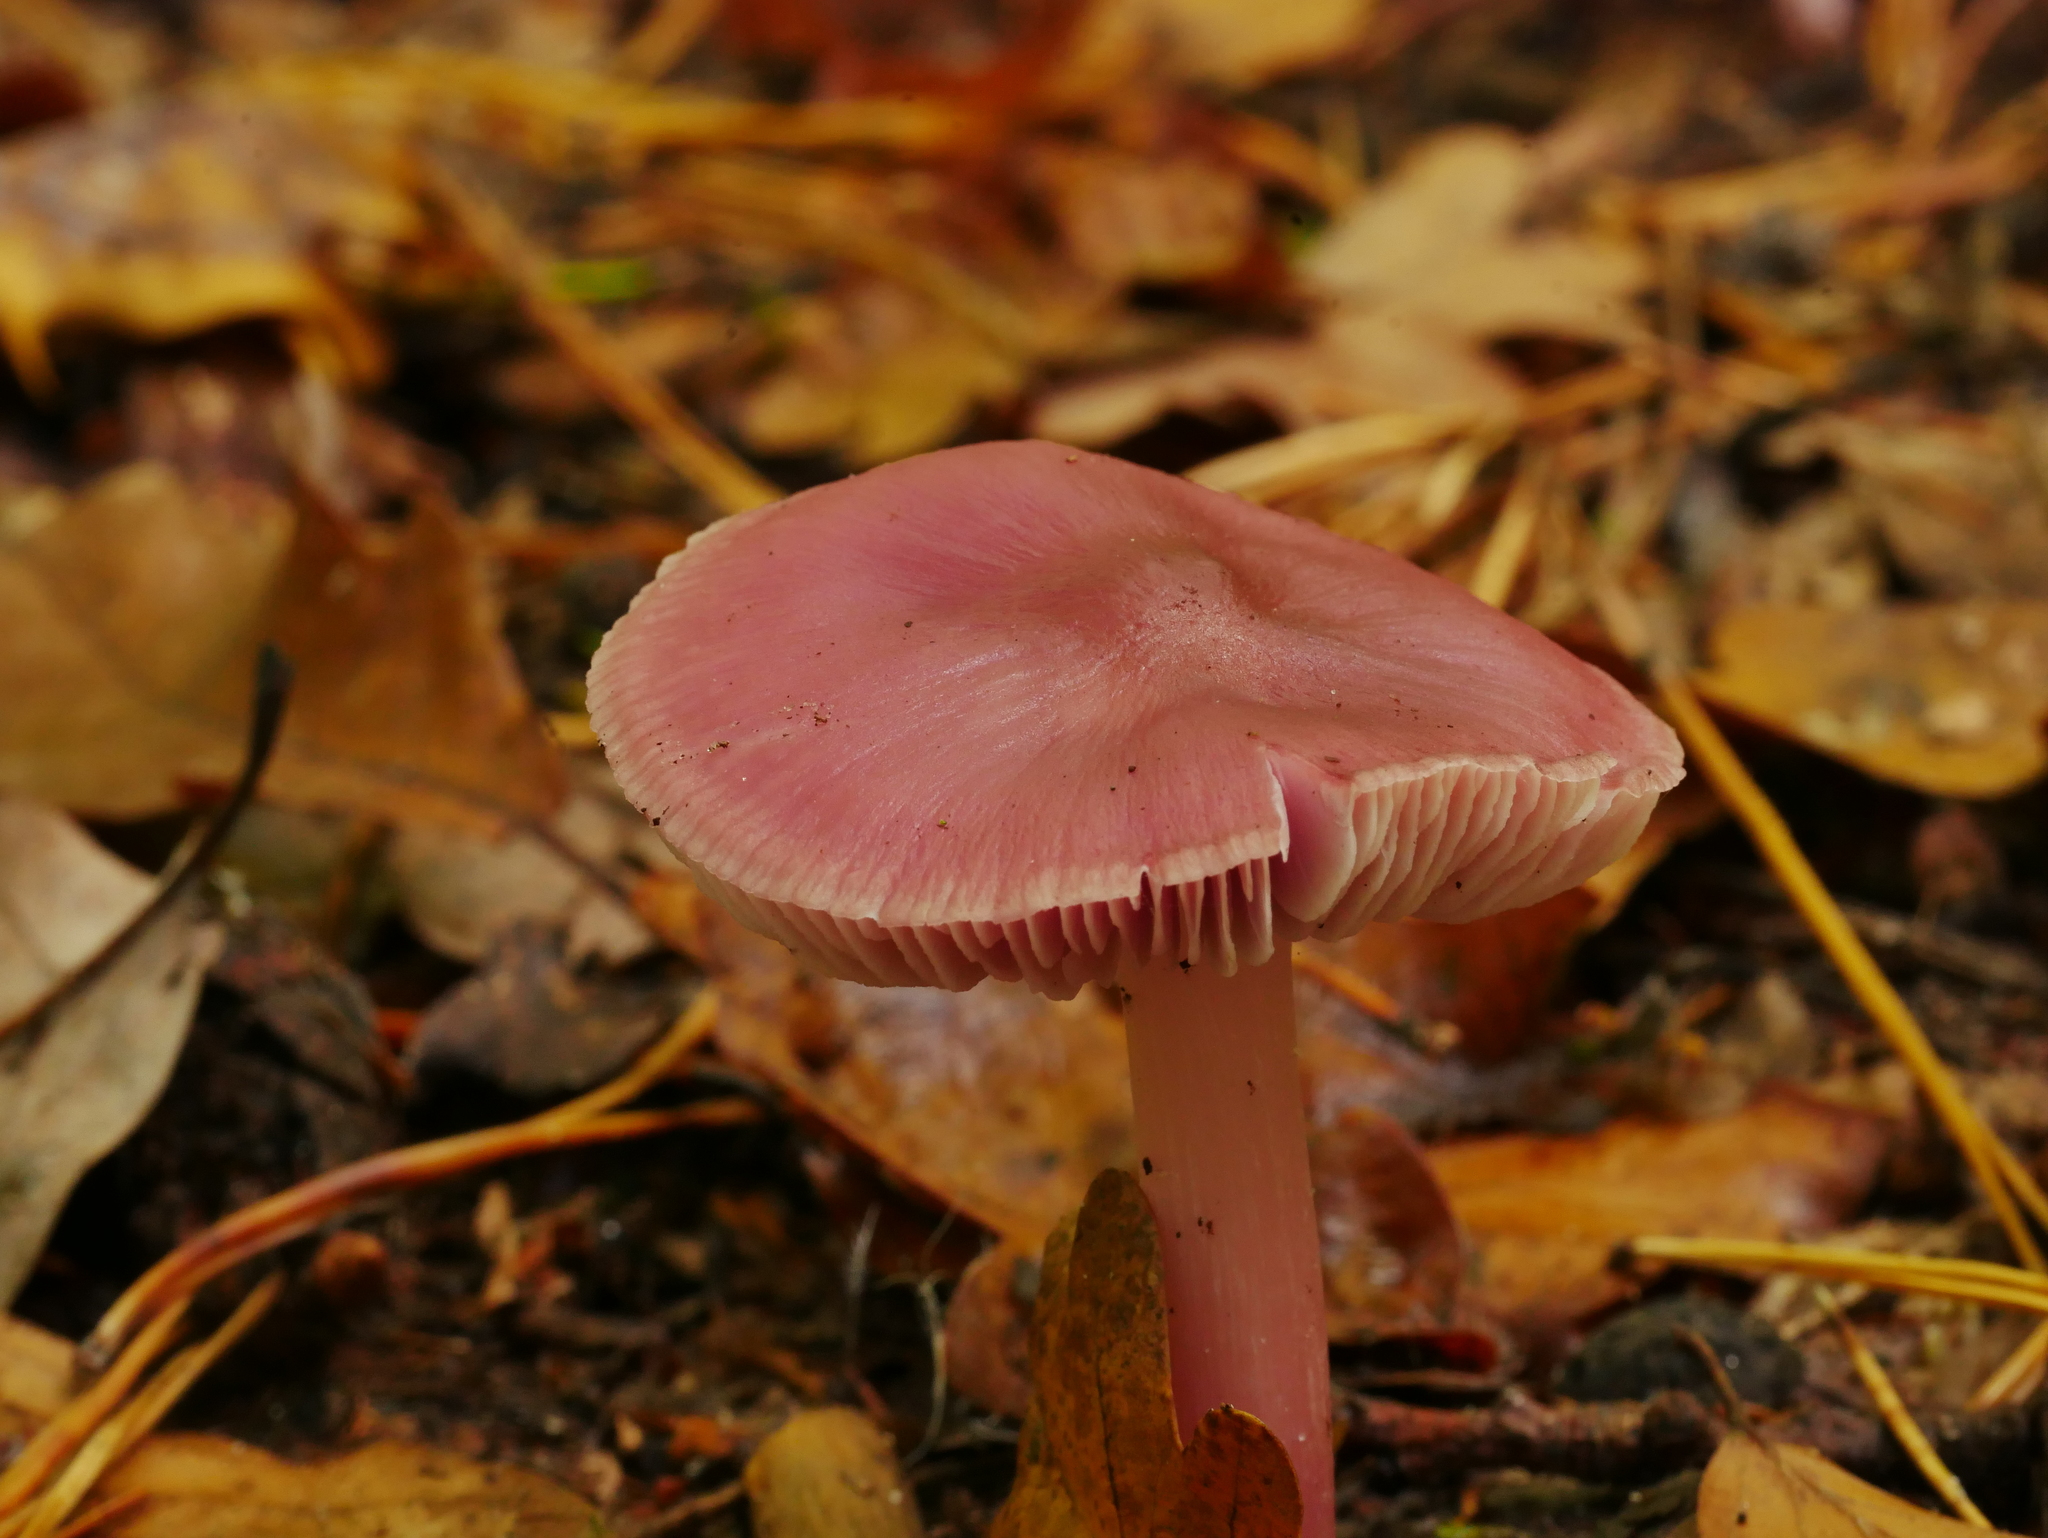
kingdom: Fungi
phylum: Basidiomycota
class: Agaricomycetes
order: Agaricales
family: Mycenaceae
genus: Mycena
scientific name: Mycena rosea
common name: Rosy bonnet
